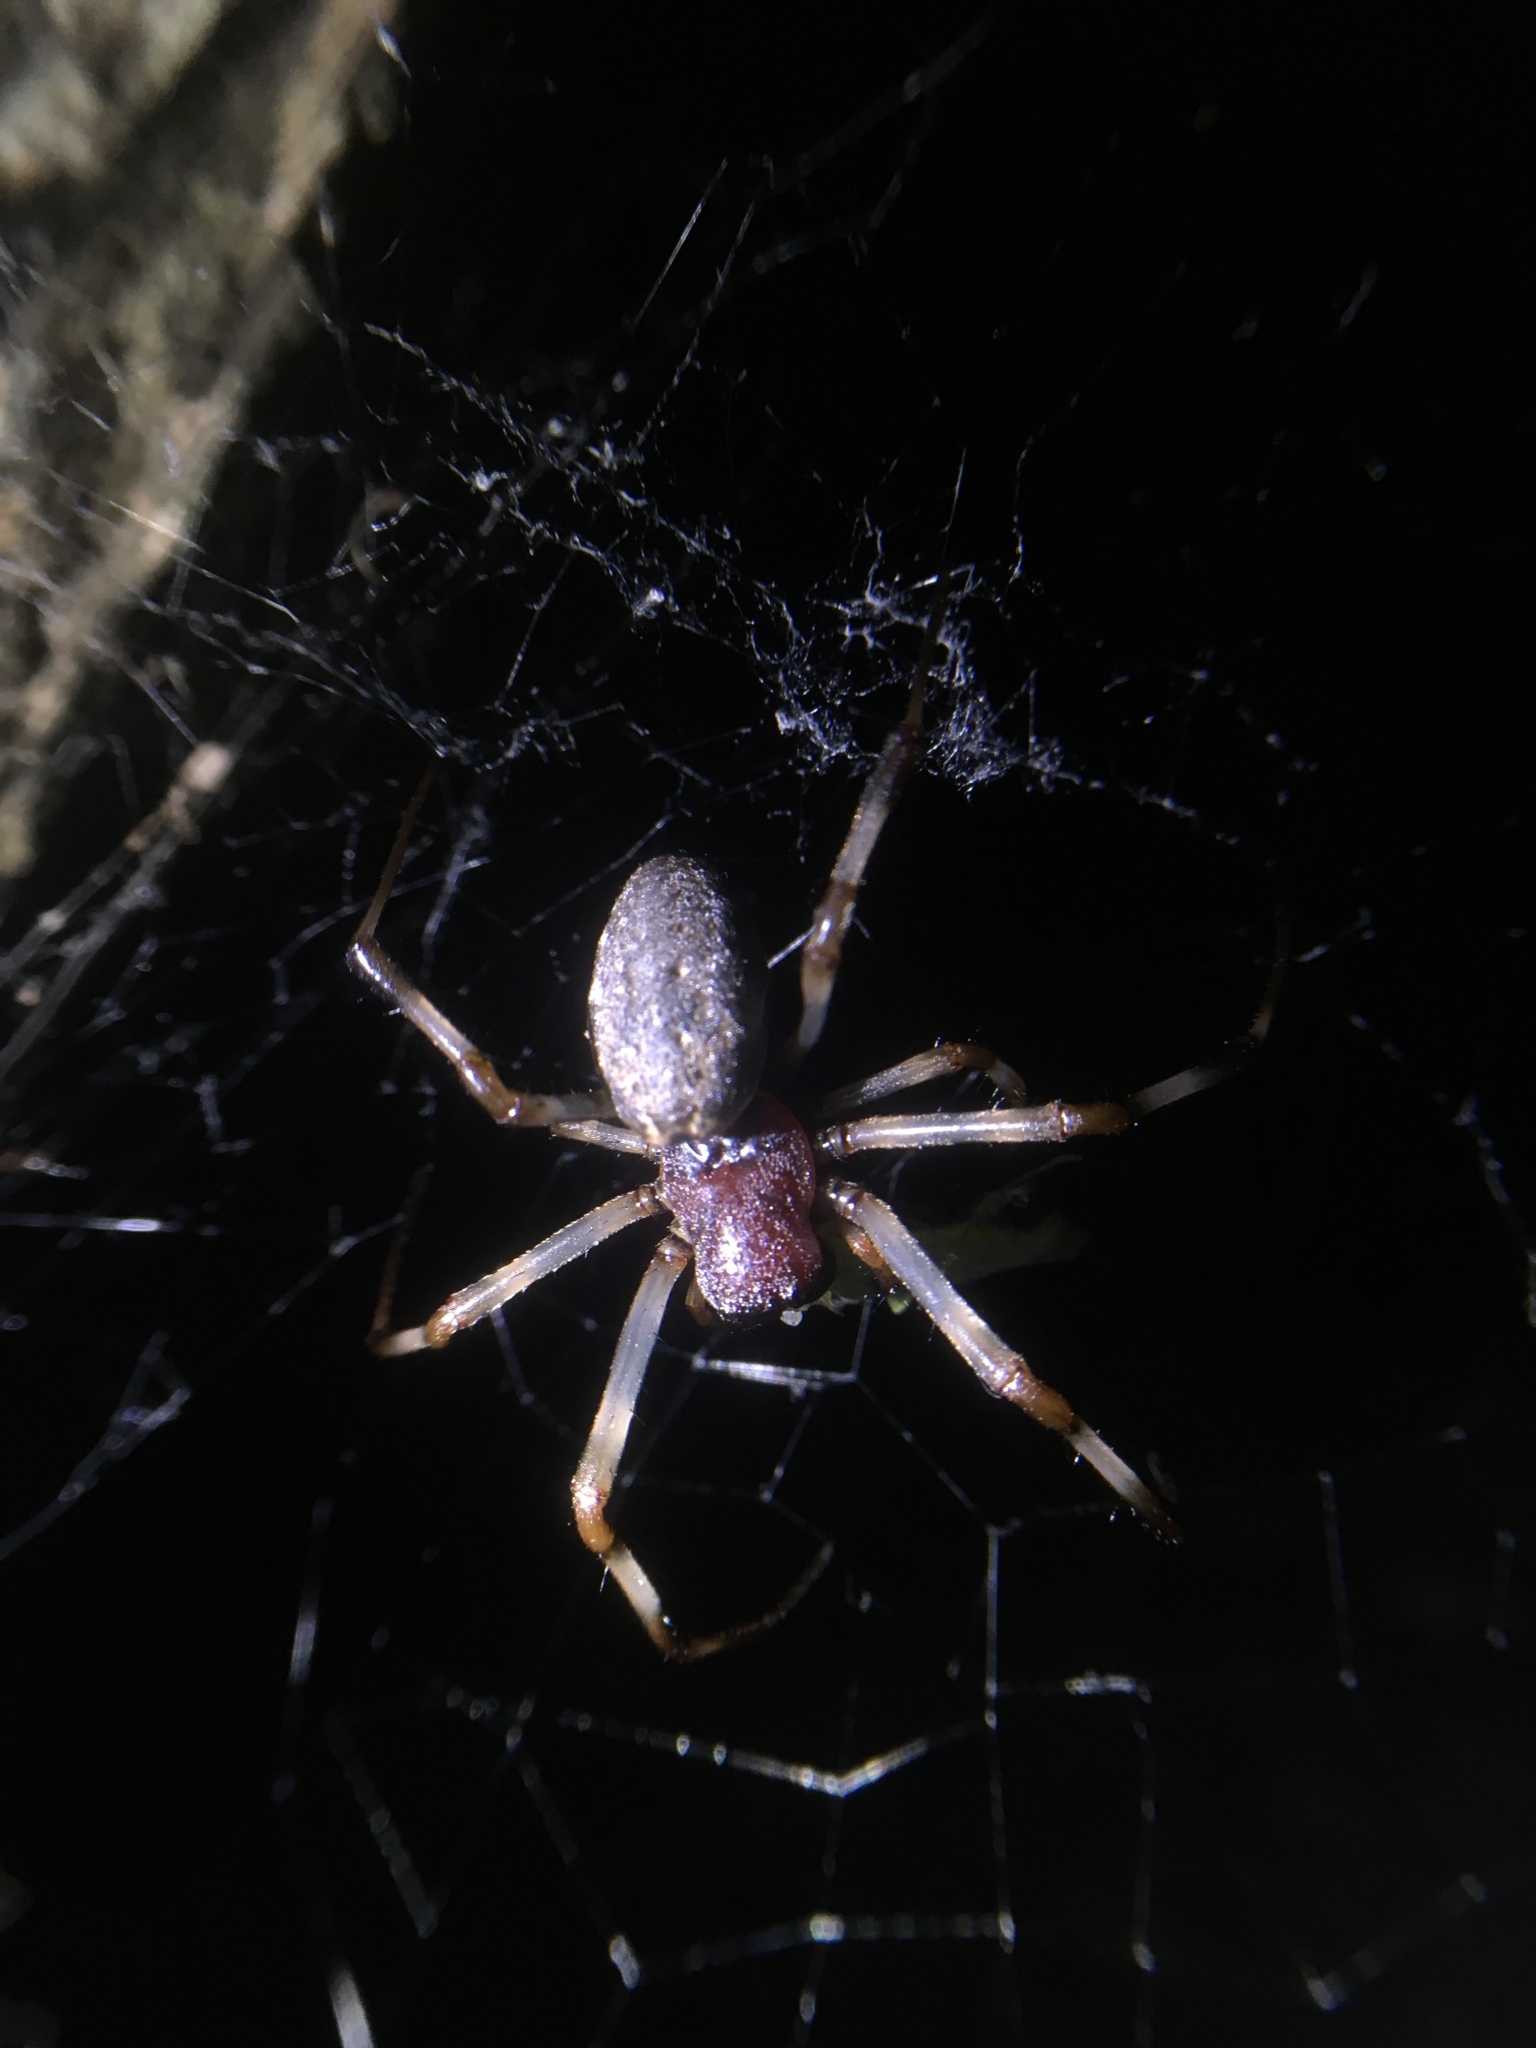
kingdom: Animalia
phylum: Arthropoda
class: Arachnida
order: Araneae
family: Araneidae
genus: Nephilengys
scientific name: Nephilengys malabarensis
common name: Asian hermit spider
